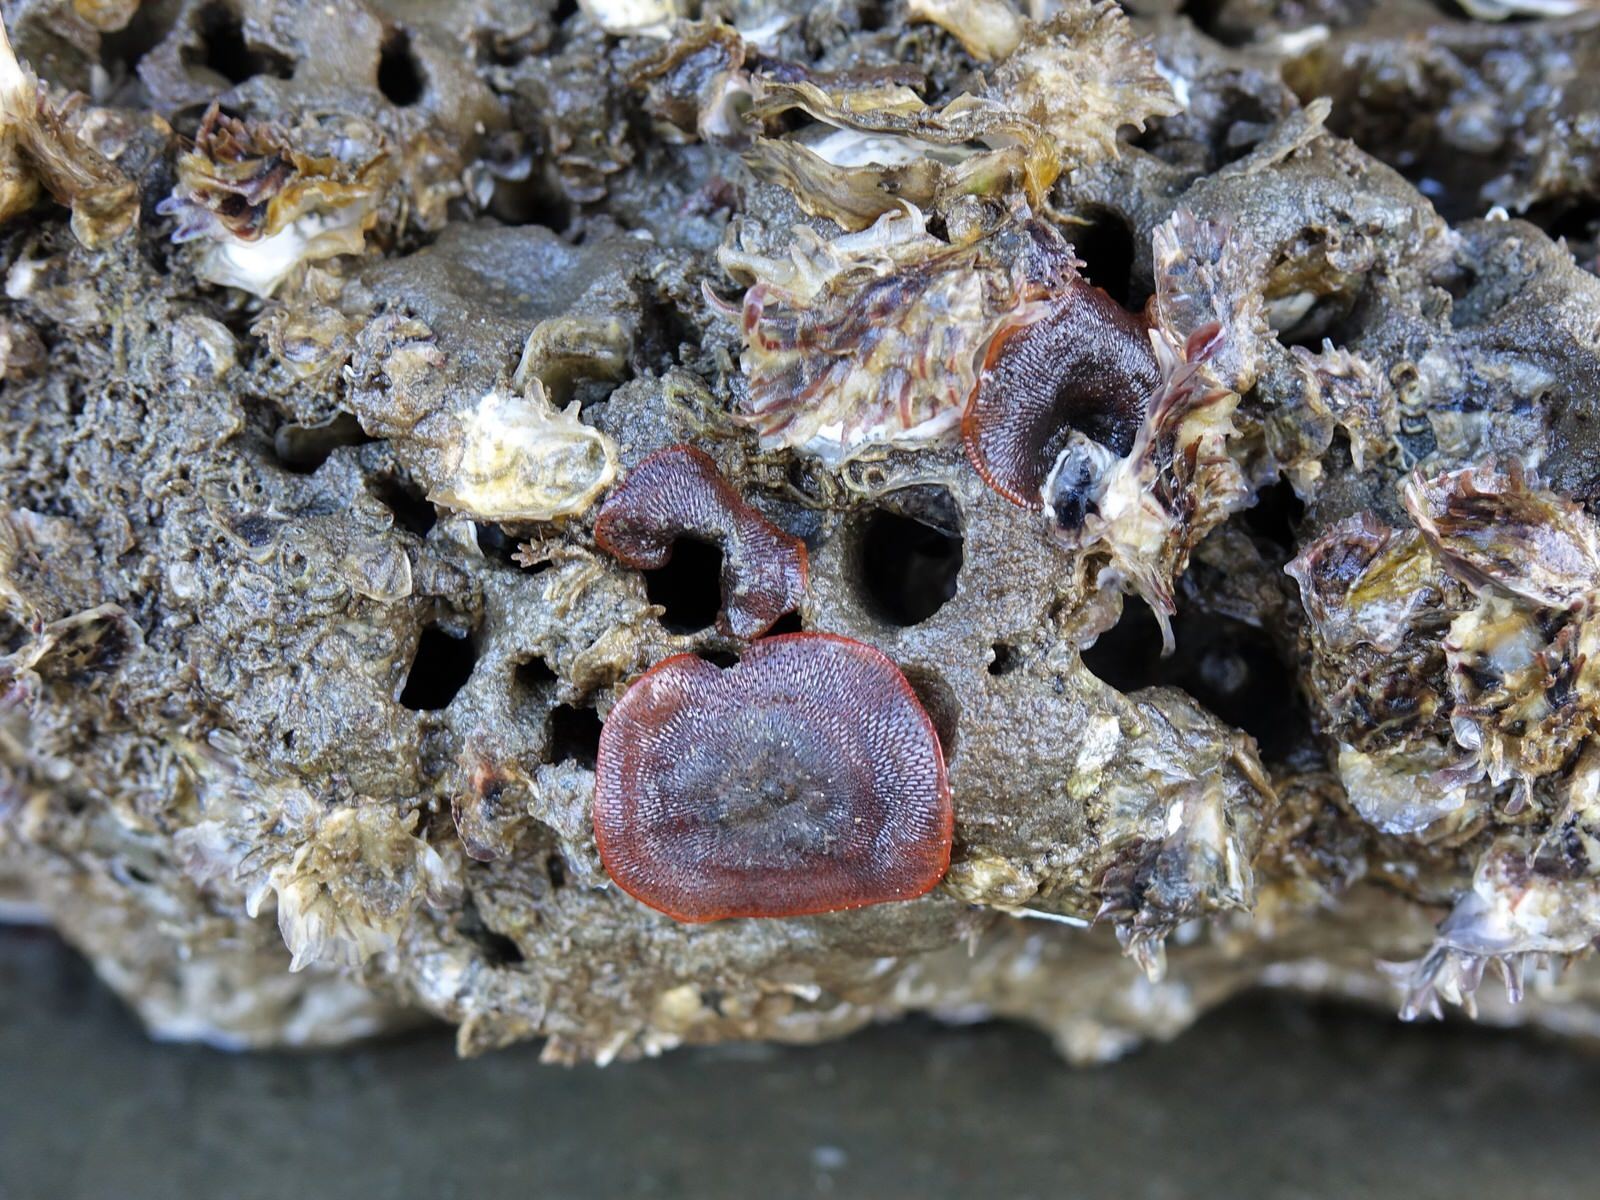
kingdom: Animalia
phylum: Bryozoa
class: Gymnolaemata
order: Cheilostomatida
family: Watersiporidae
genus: Watersipora
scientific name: Watersipora subatra
